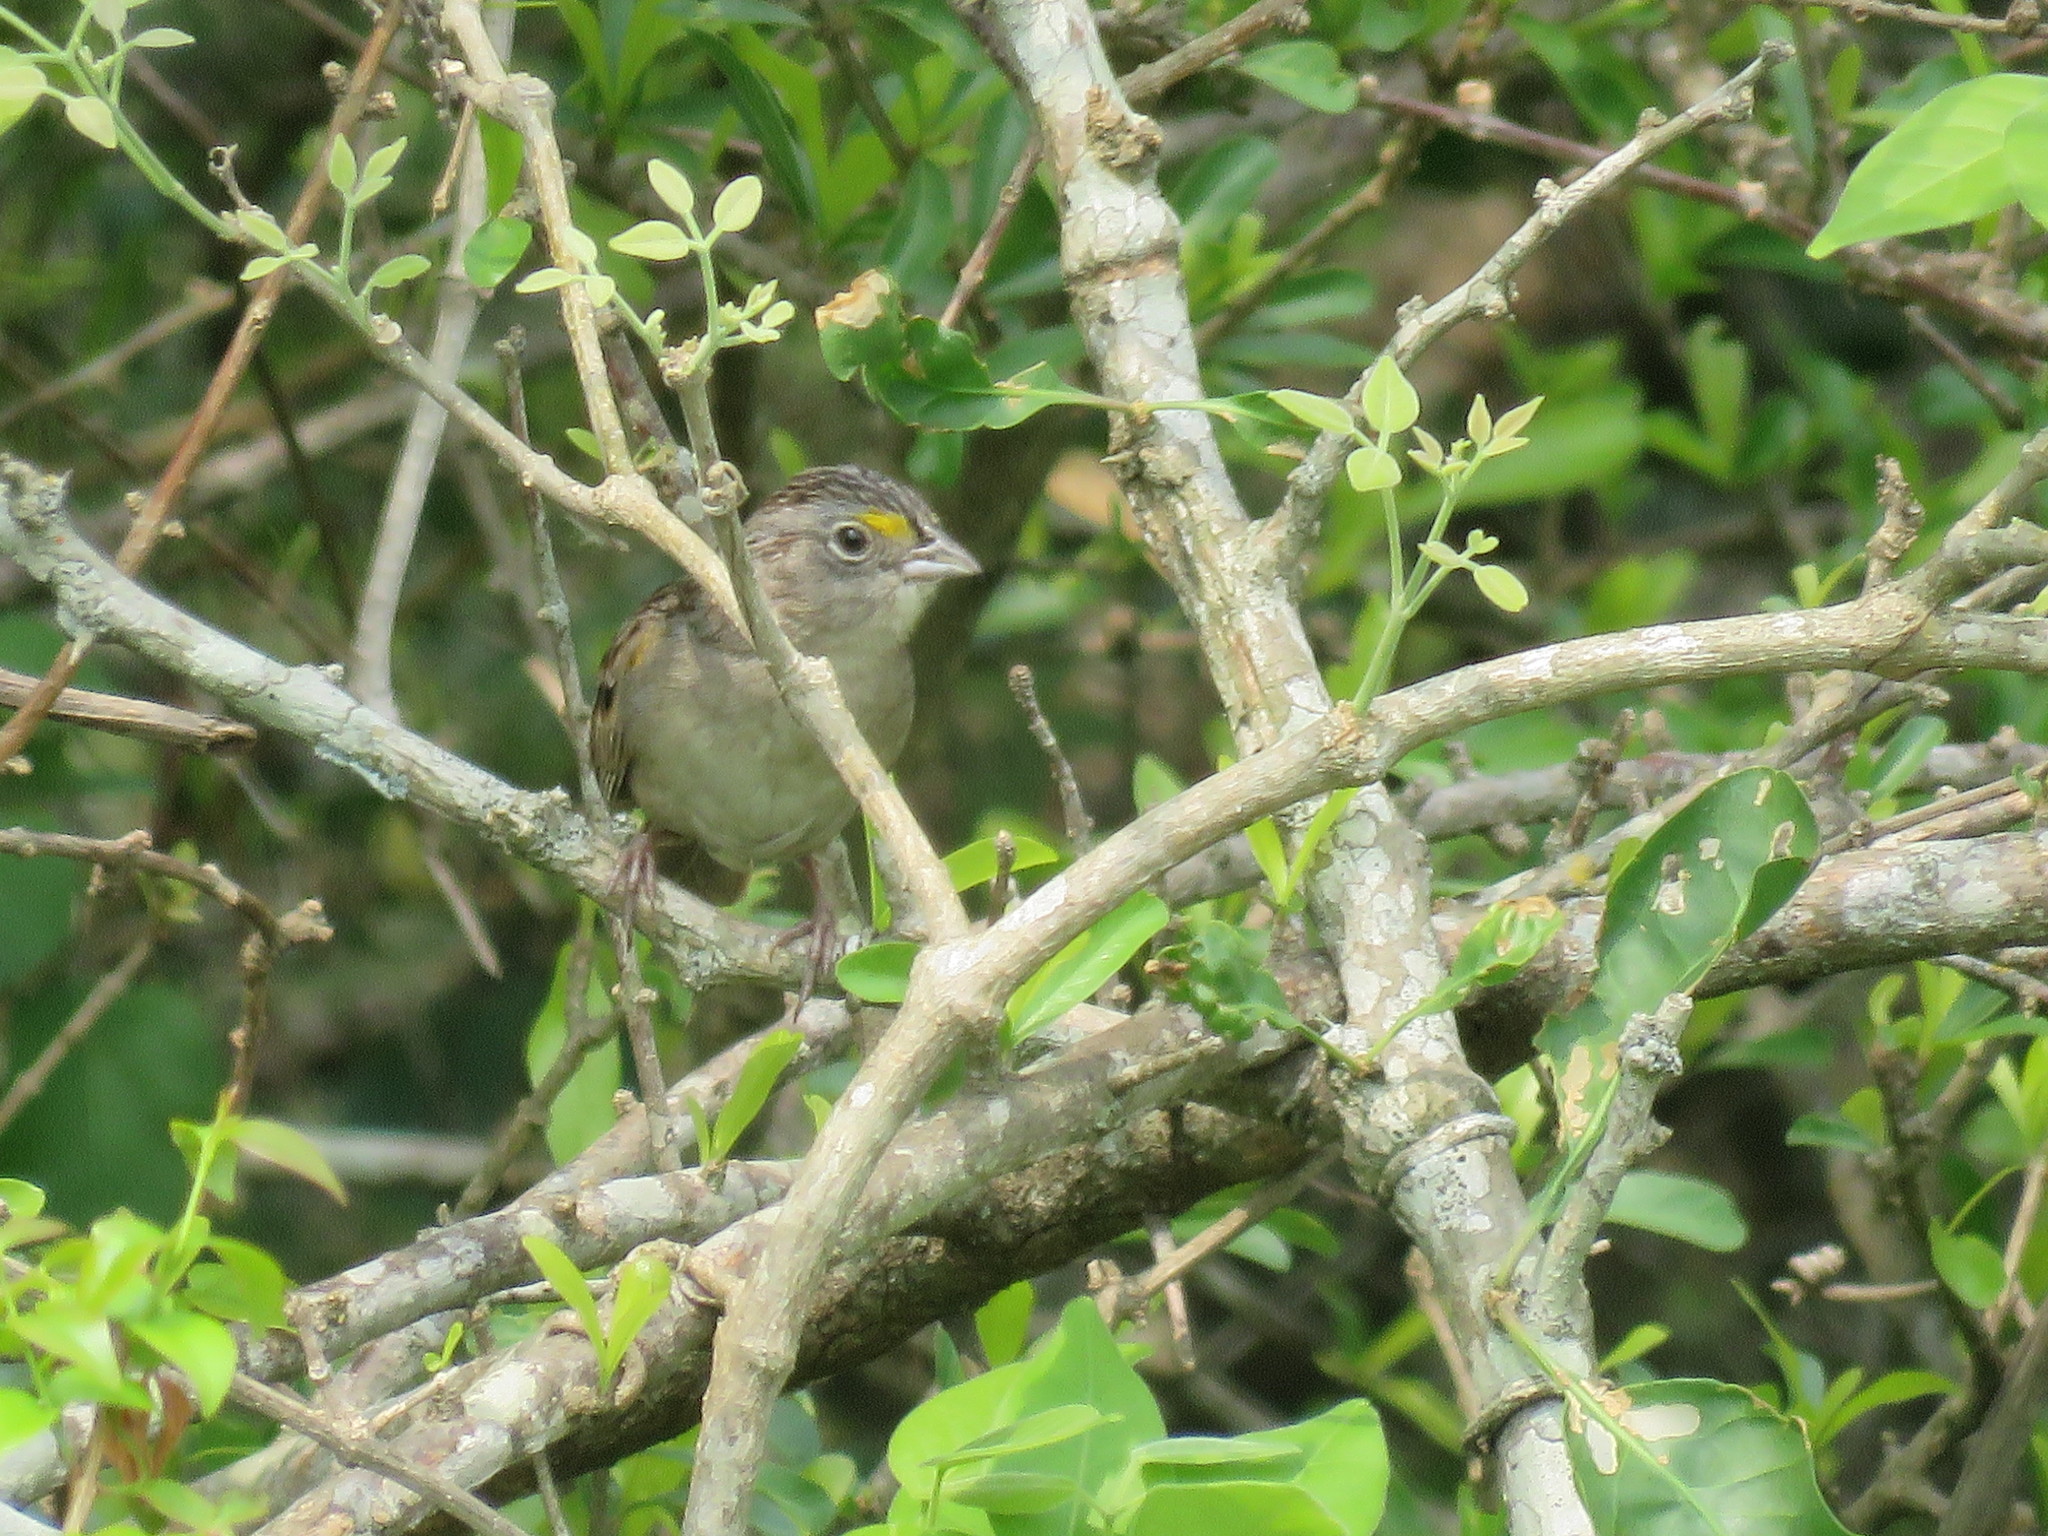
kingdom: Animalia
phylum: Chordata
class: Aves
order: Passeriformes
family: Passerellidae
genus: Ammodramus
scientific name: Ammodramus humeralis
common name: Grassland sparrow
